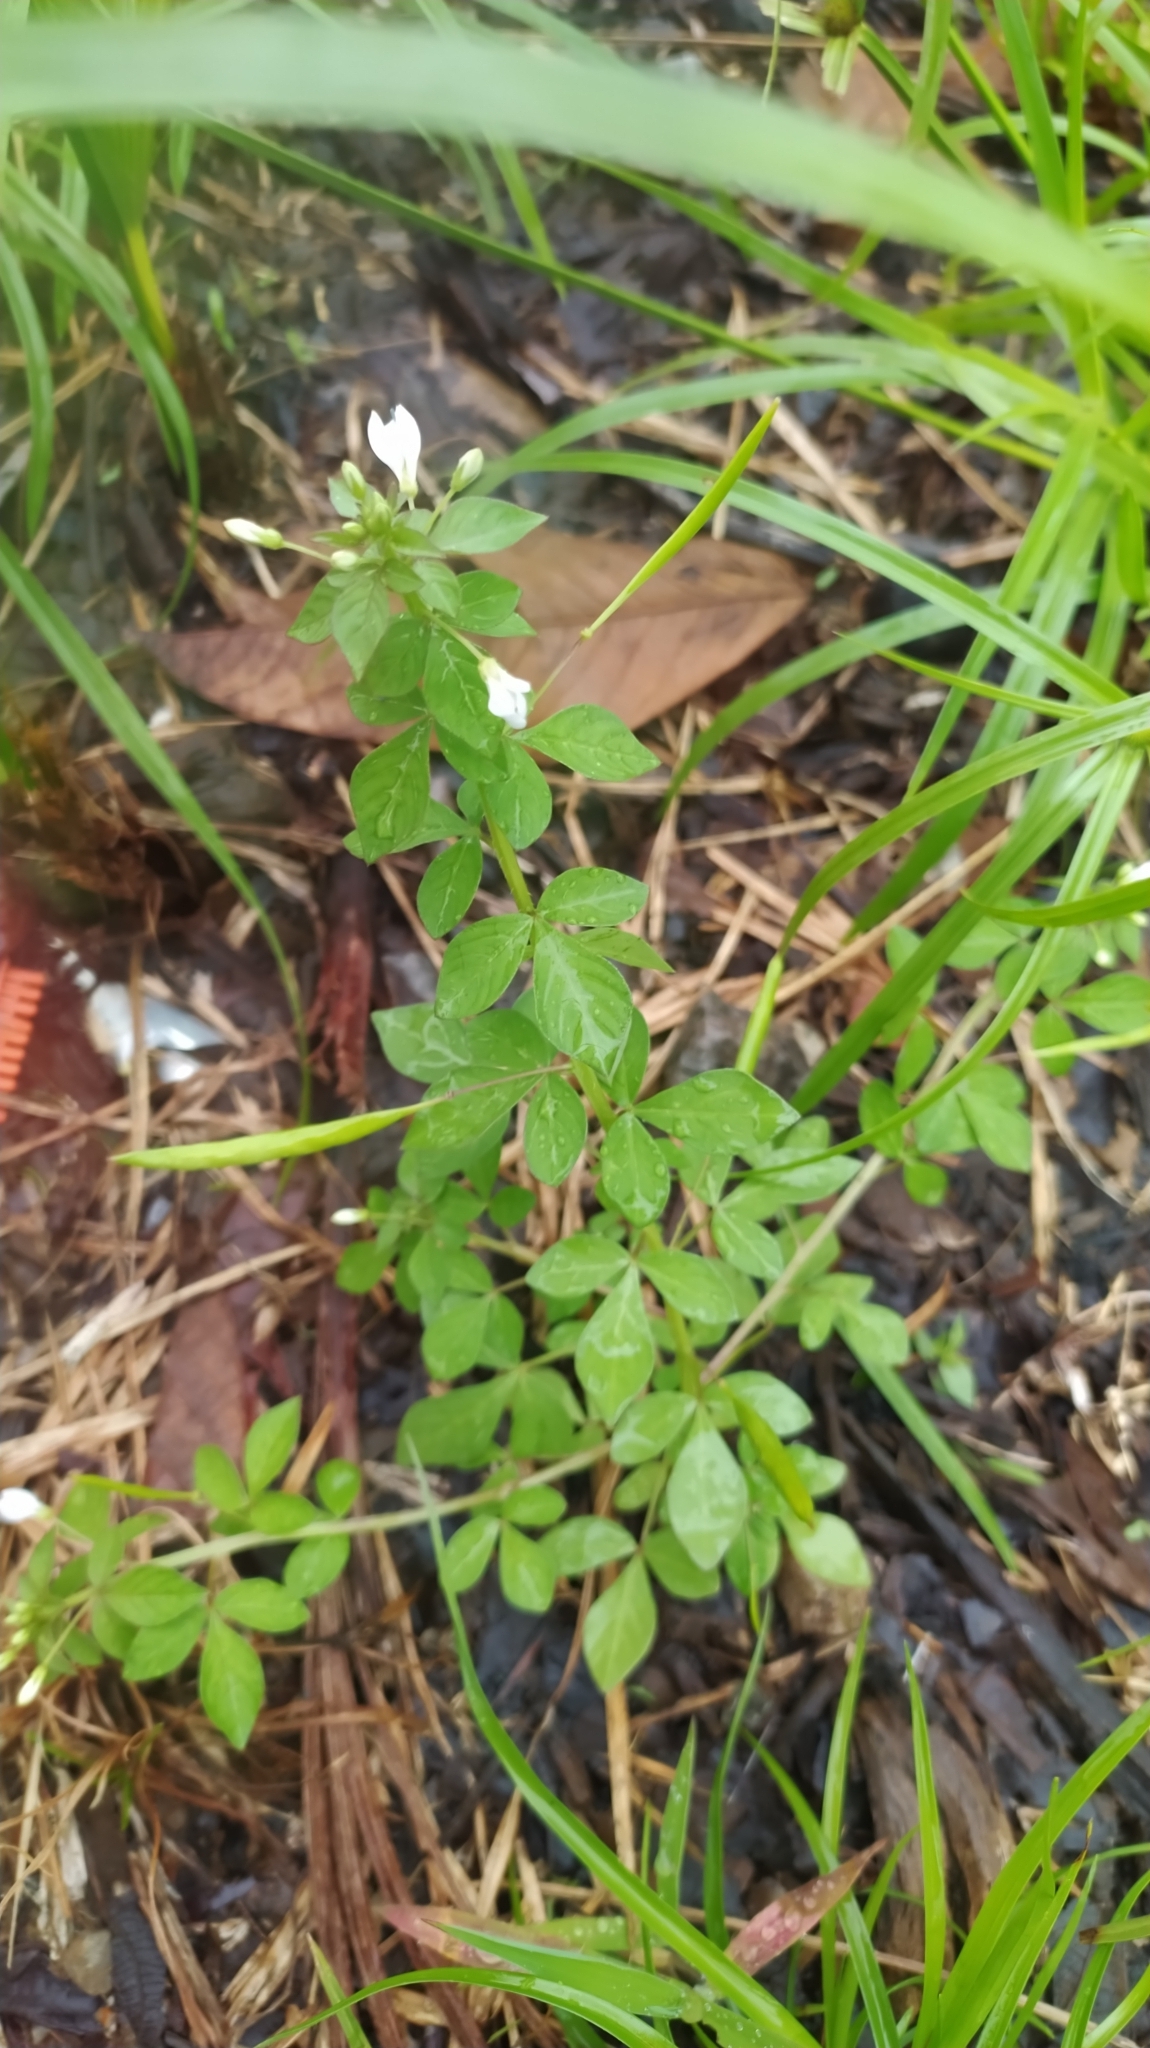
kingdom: Plantae
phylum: Tracheophyta
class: Magnoliopsida
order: Brassicales
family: Cleomaceae
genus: Sieruela
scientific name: Sieruela rutidosperma
